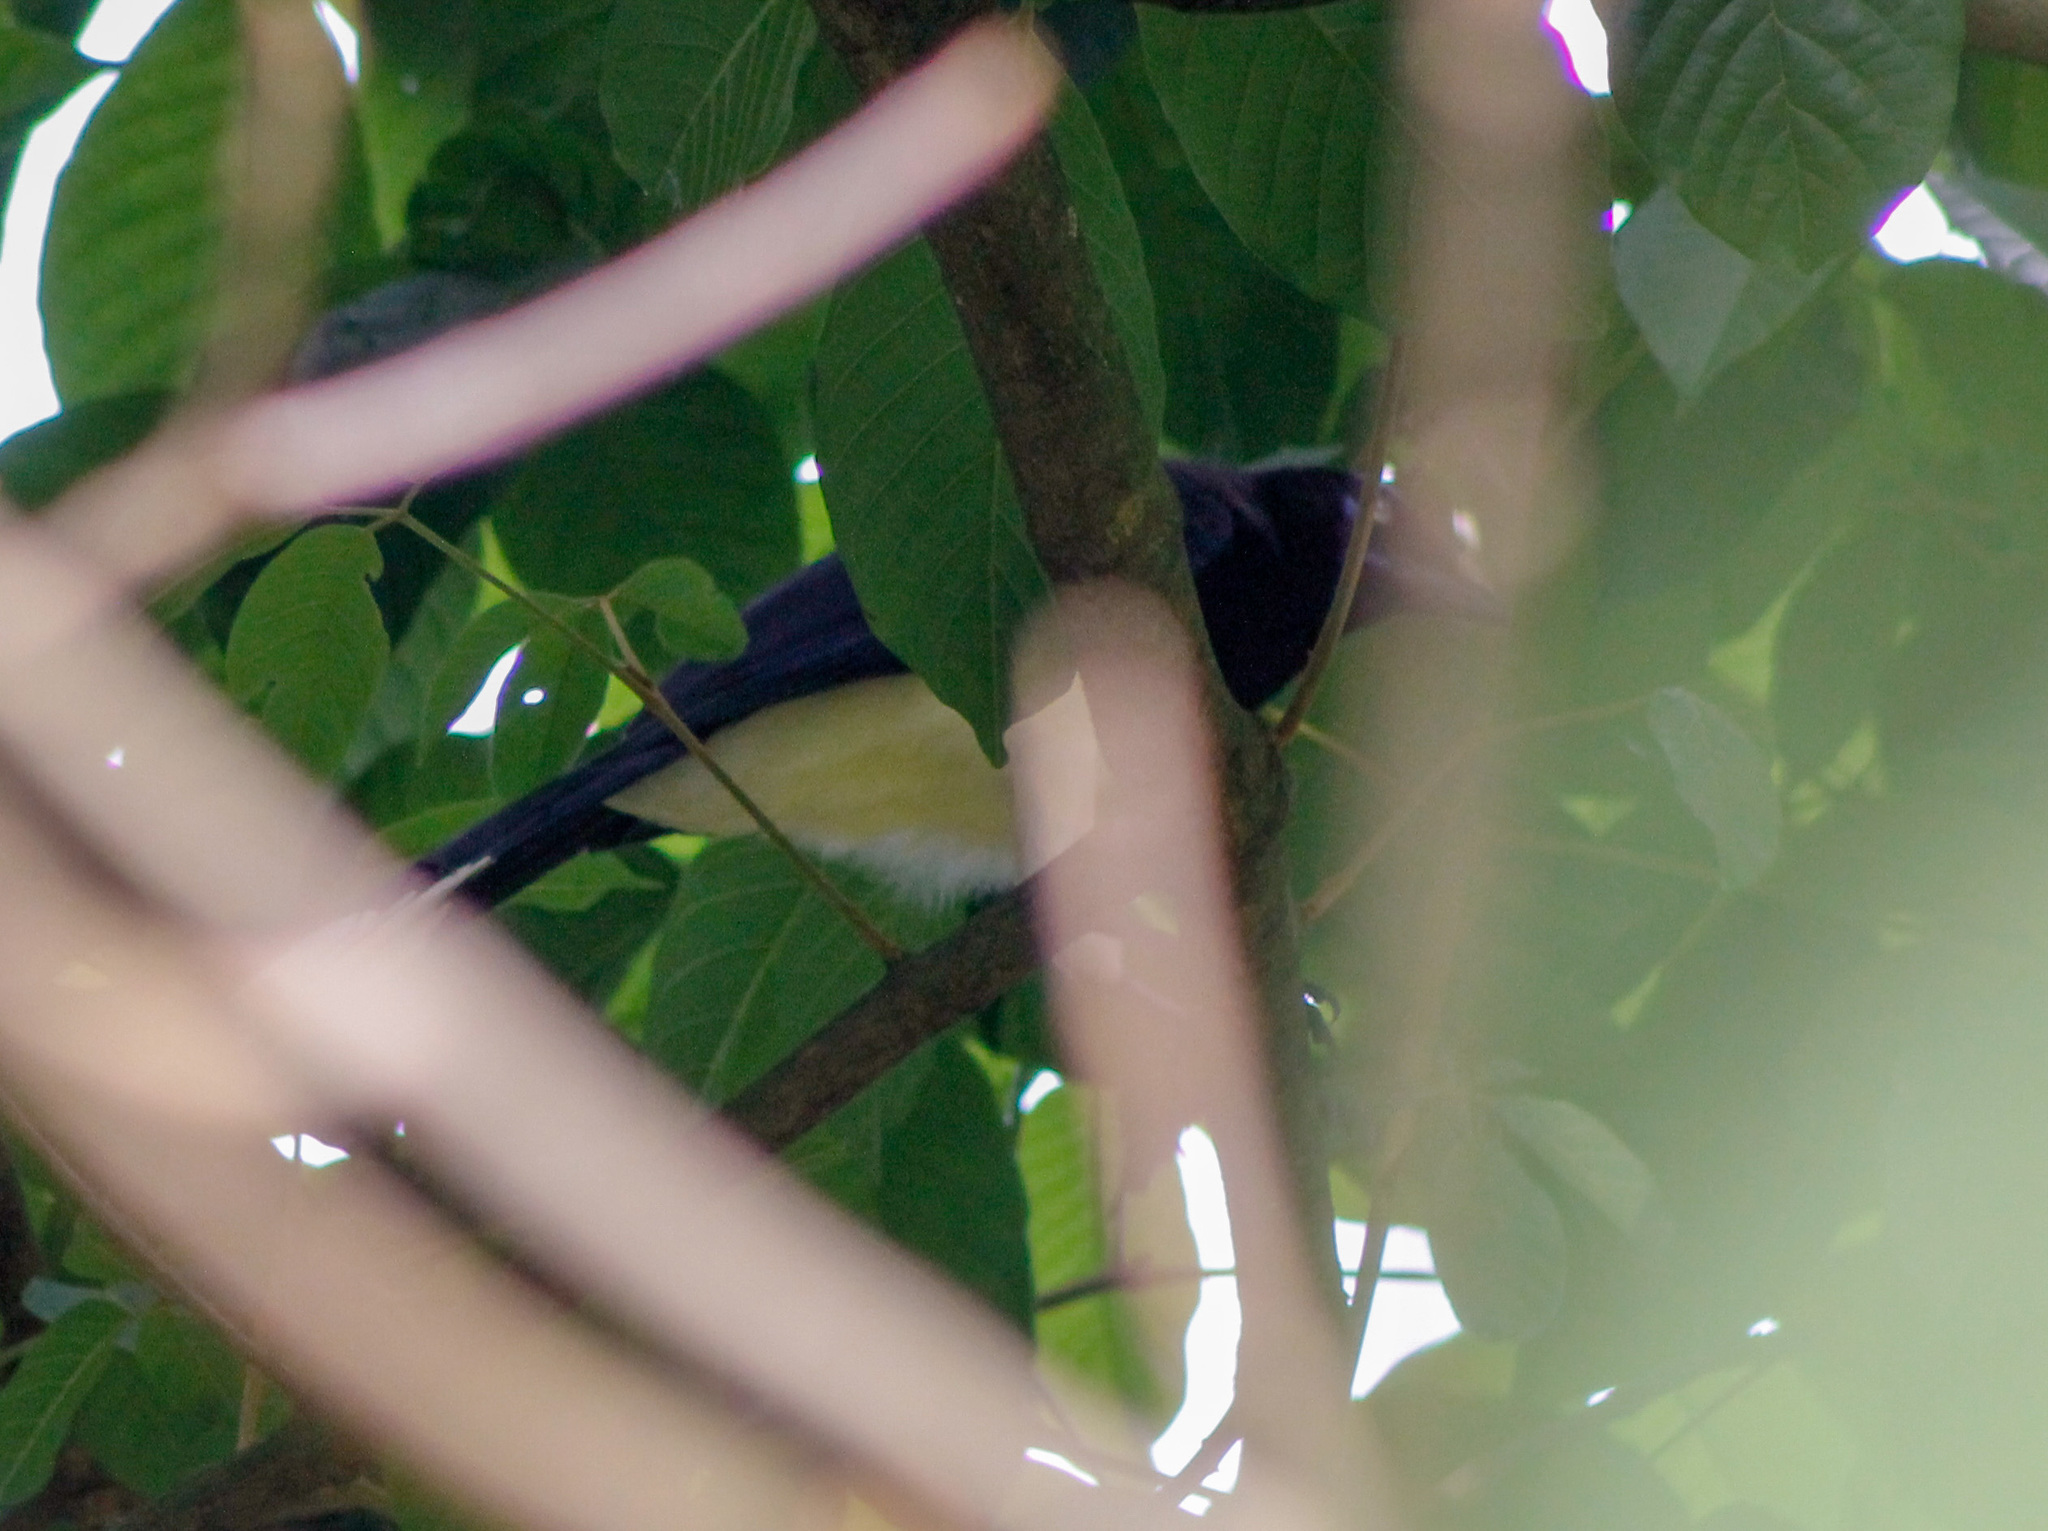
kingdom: Animalia
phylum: Chordata
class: Aves
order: Passeriformes
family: Corvidae
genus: Cyanocorax
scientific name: Cyanocorax affinis
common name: Black-chested jay
